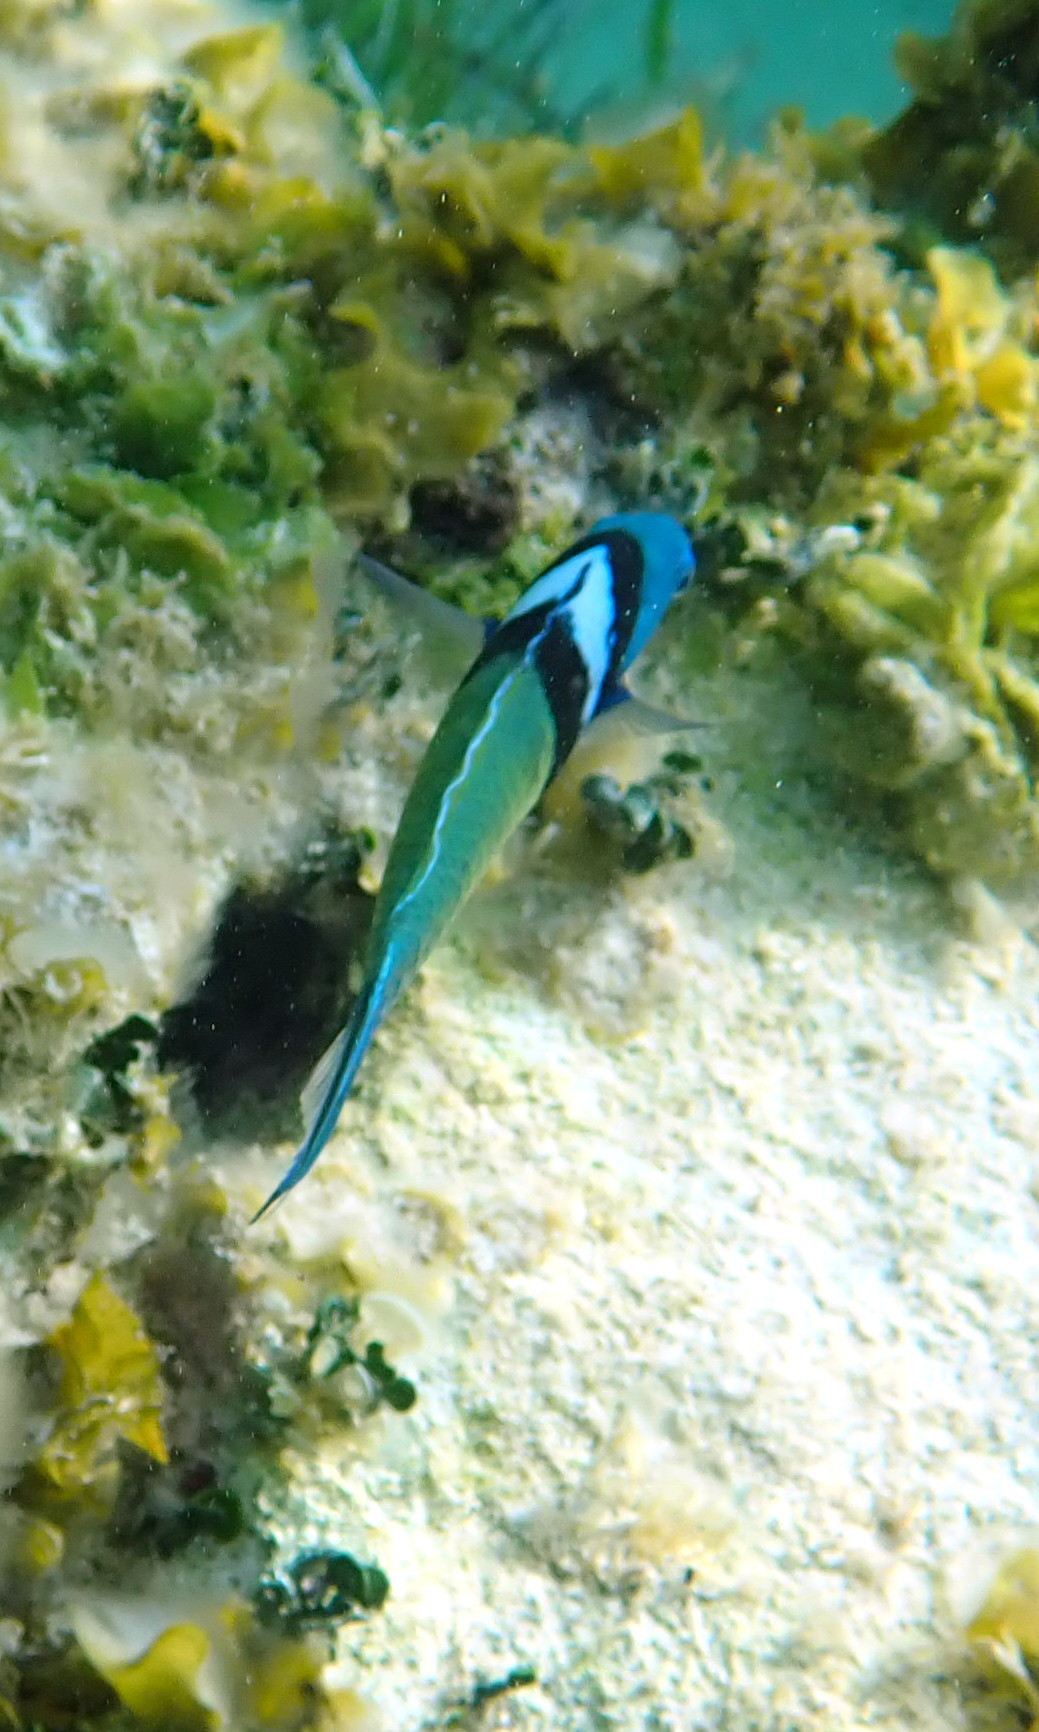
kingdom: Animalia
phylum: Chordata
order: Perciformes
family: Labridae
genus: Thalassoma
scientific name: Thalassoma bifasciatum
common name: Bluehead wrasse
